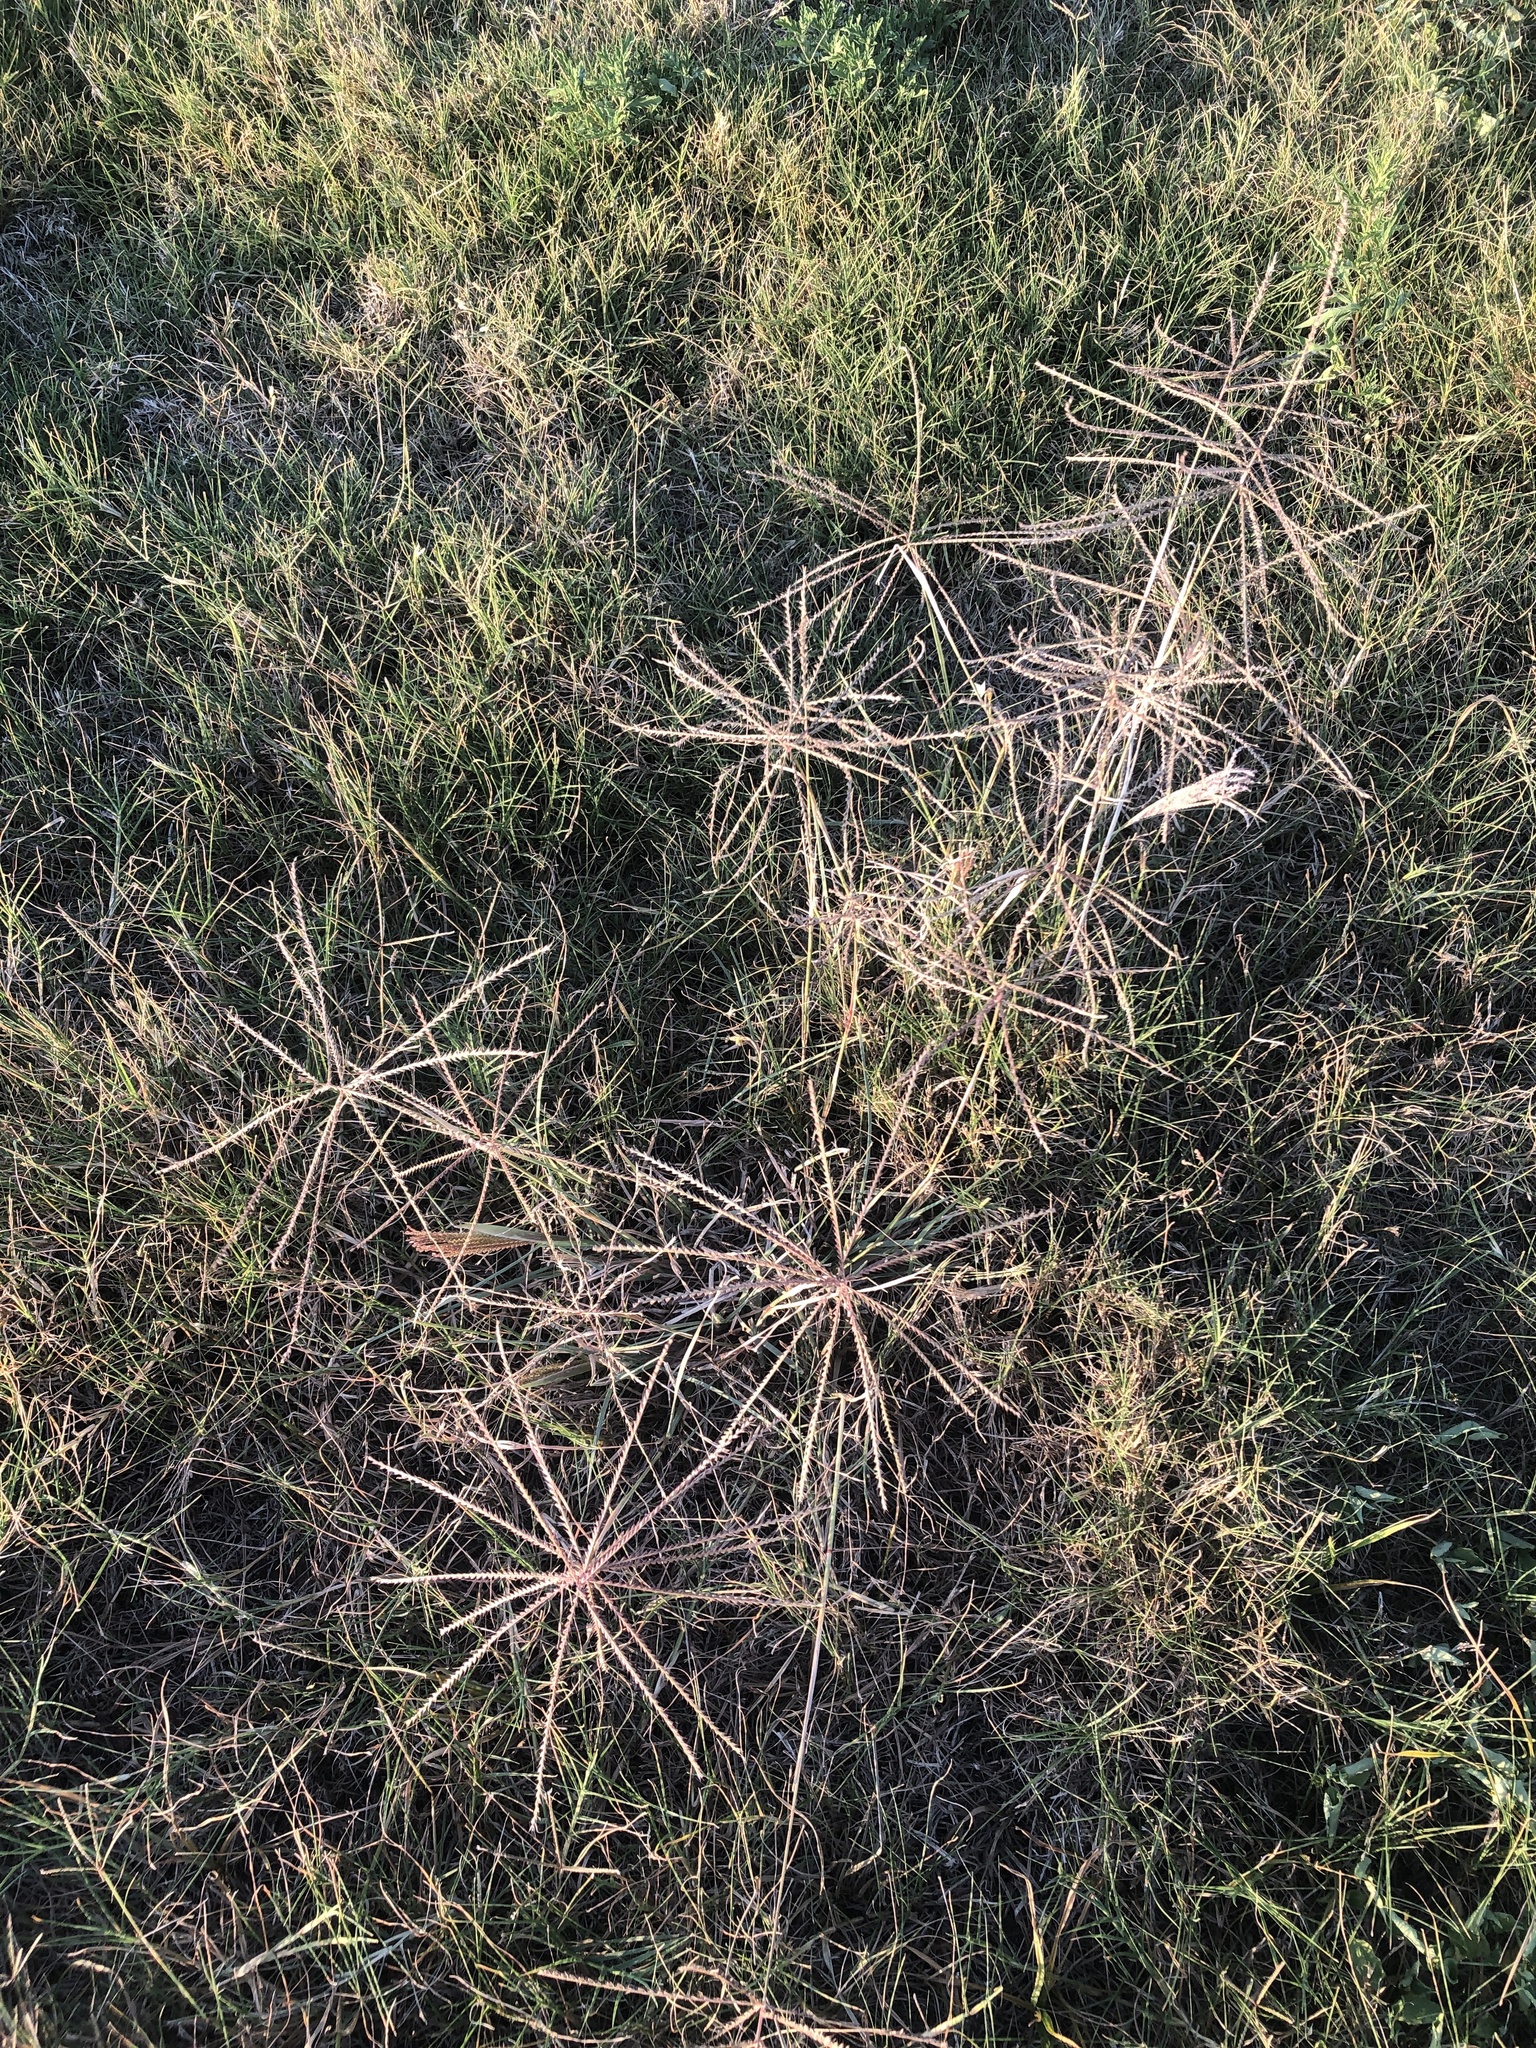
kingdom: Plantae
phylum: Tracheophyta
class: Liliopsida
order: Poales
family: Poaceae
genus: Chloris
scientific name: Chloris verticillata
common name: Tumble windmill grass
